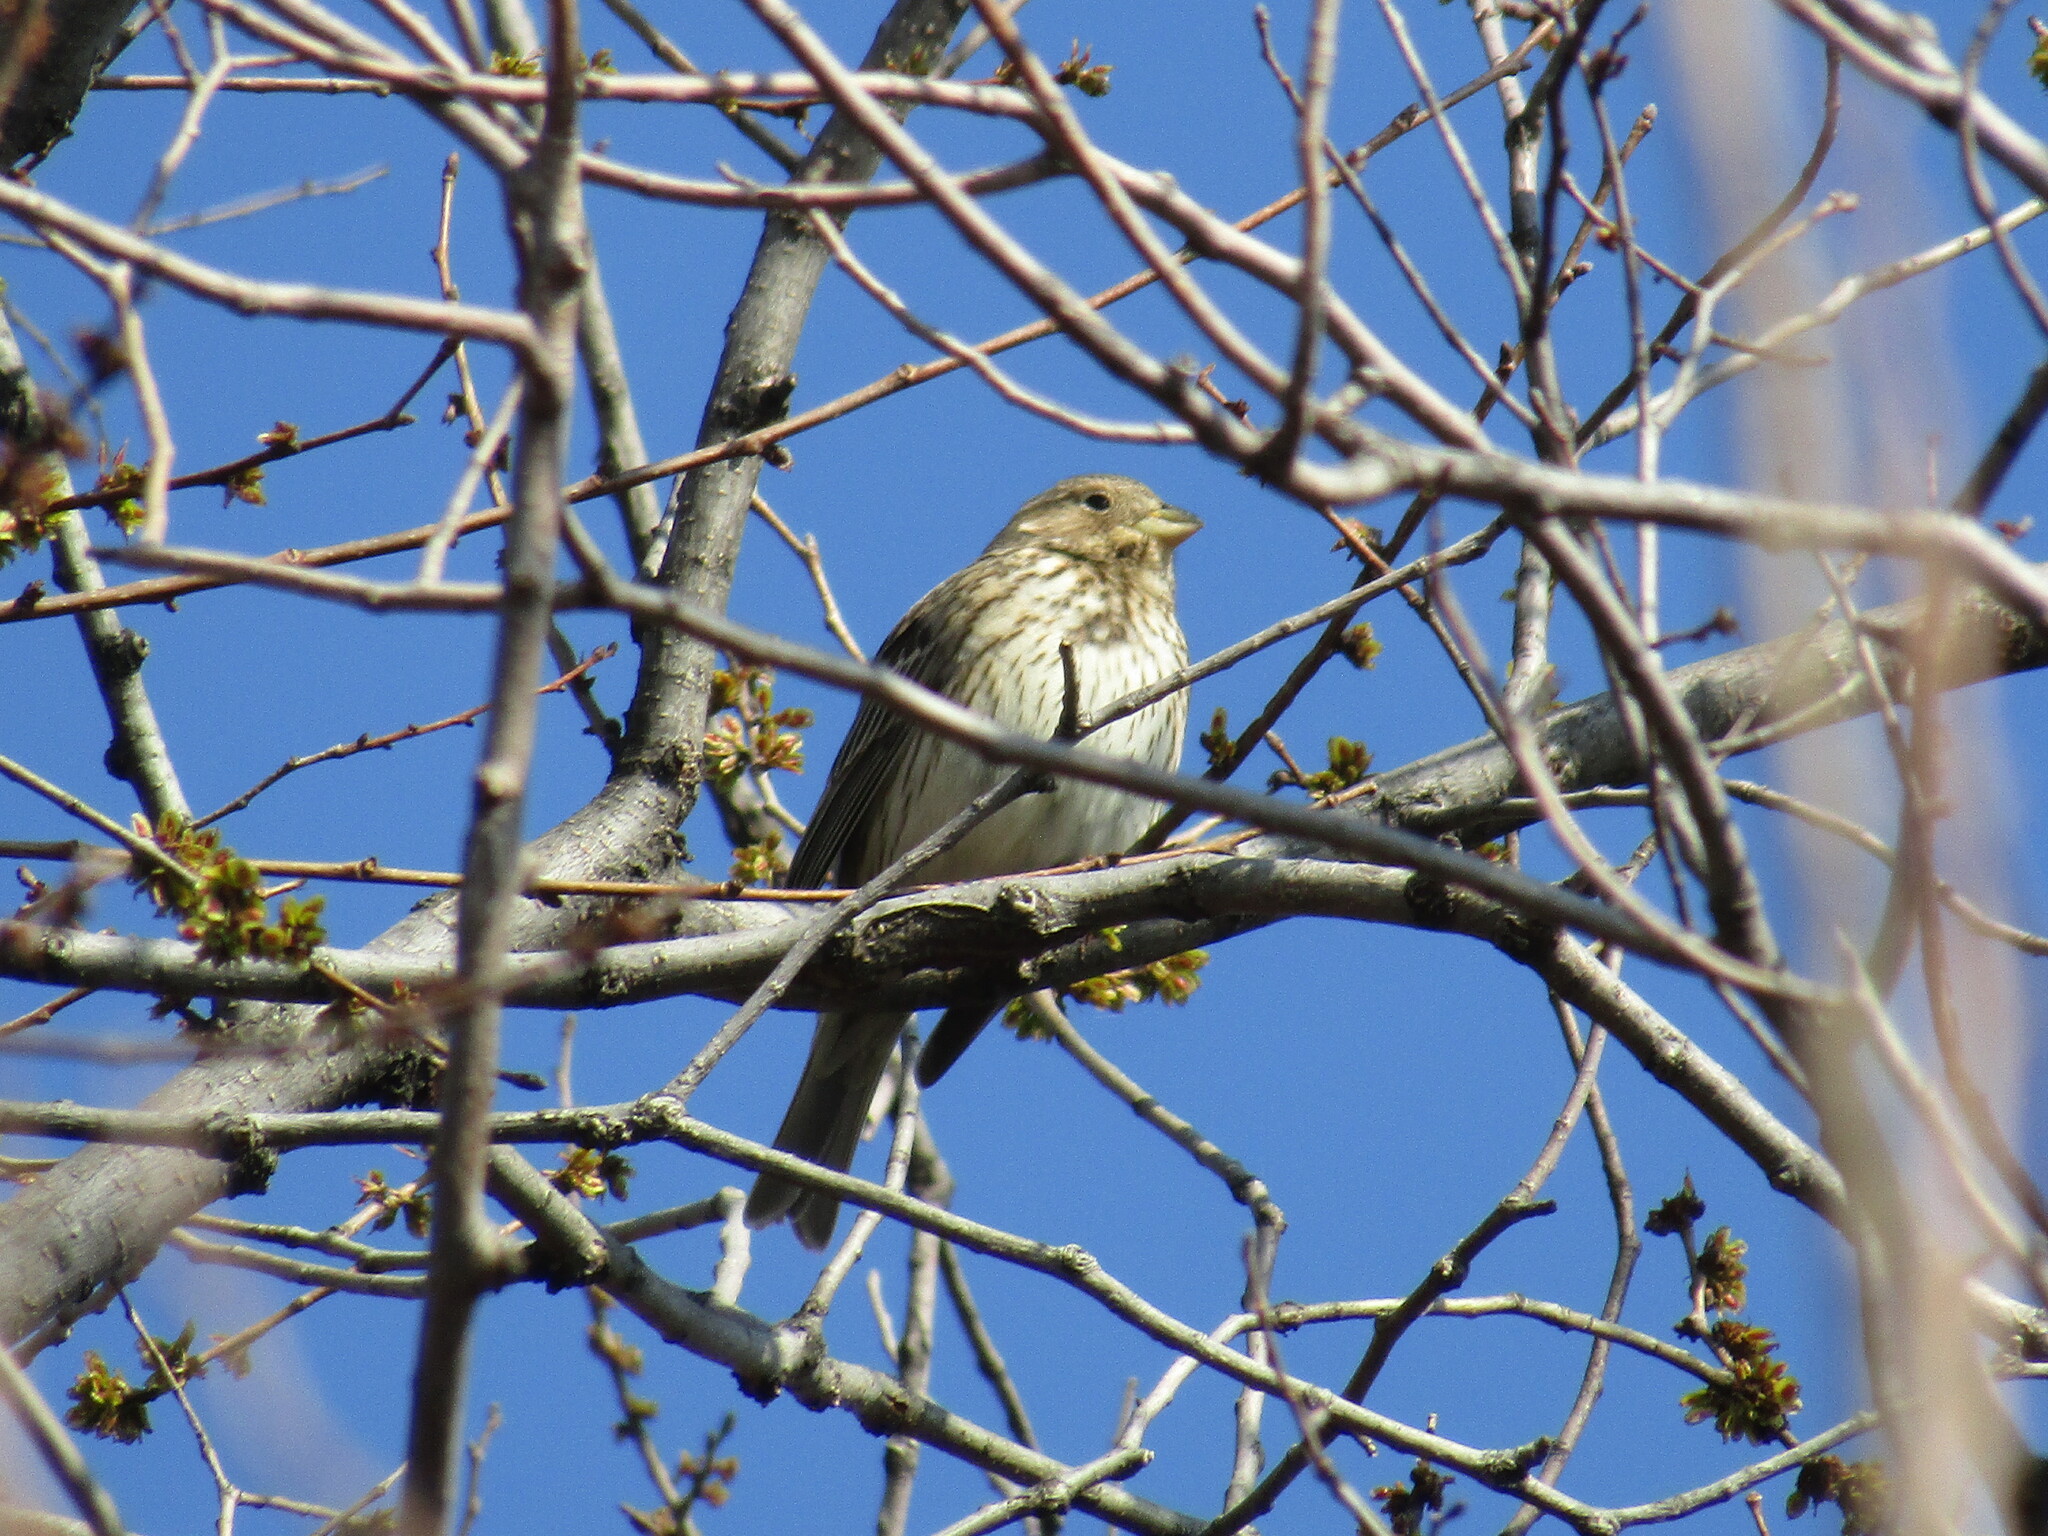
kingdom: Animalia
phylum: Chordata
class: Aves
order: Passeriformes
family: Emberizidae
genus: Emberiza
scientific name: Emberiza calandra
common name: Corn bunting
